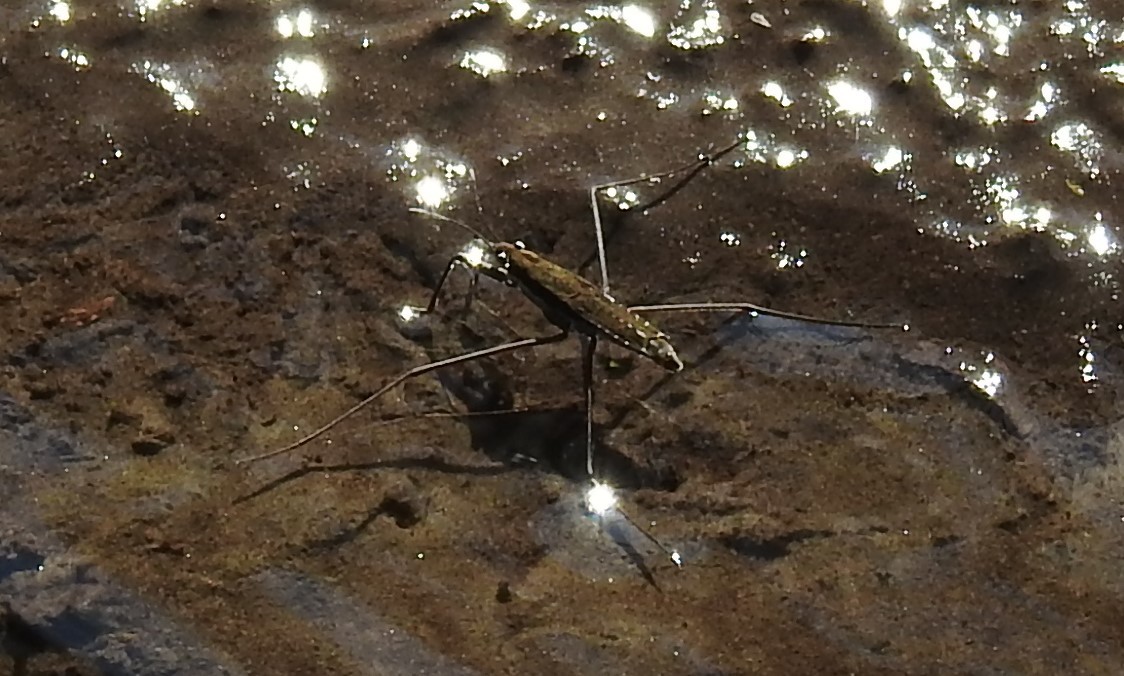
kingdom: Animalia
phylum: Arthropoda
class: Insecta
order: Hemiptera
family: Gerridae
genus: Aquarius
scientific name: Aquarius remigis
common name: Common water strider
